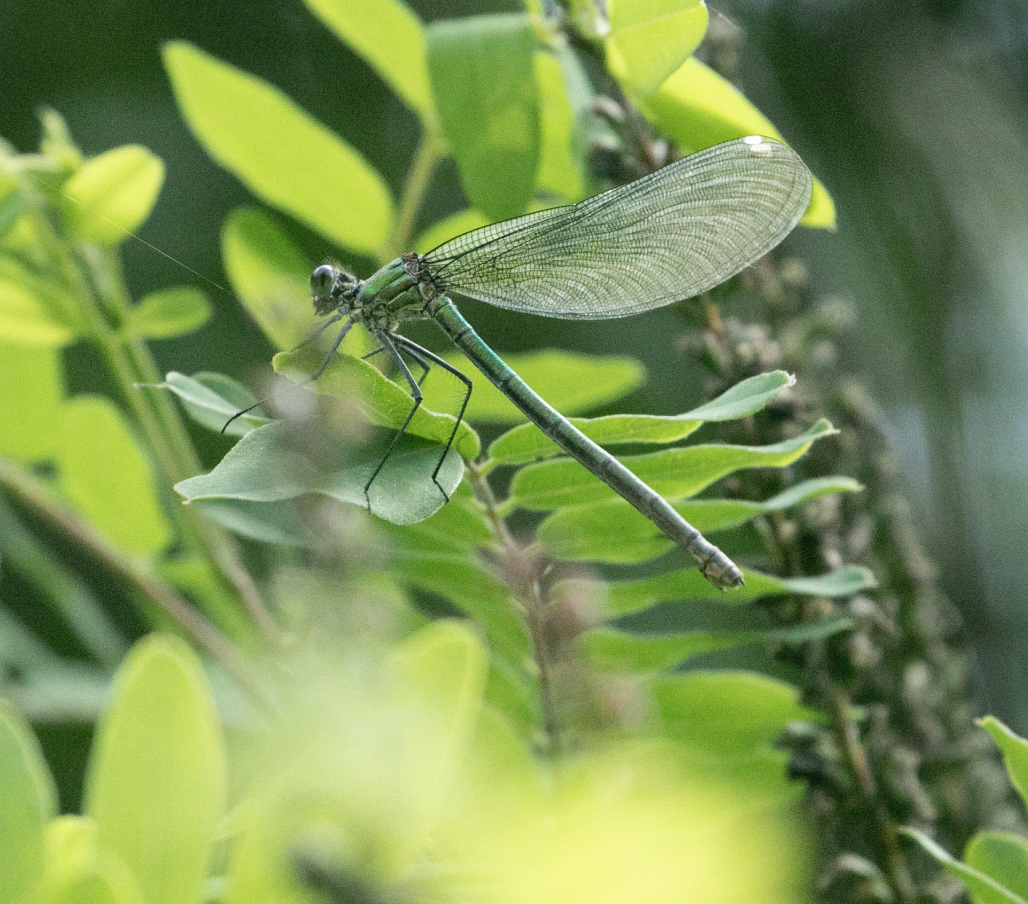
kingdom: Animalia
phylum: Arthropoda
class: Insecta
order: Odonata
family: Calopterygidae
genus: Calopteryx
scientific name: Calopteryx splendens
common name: Banded demoiselle
